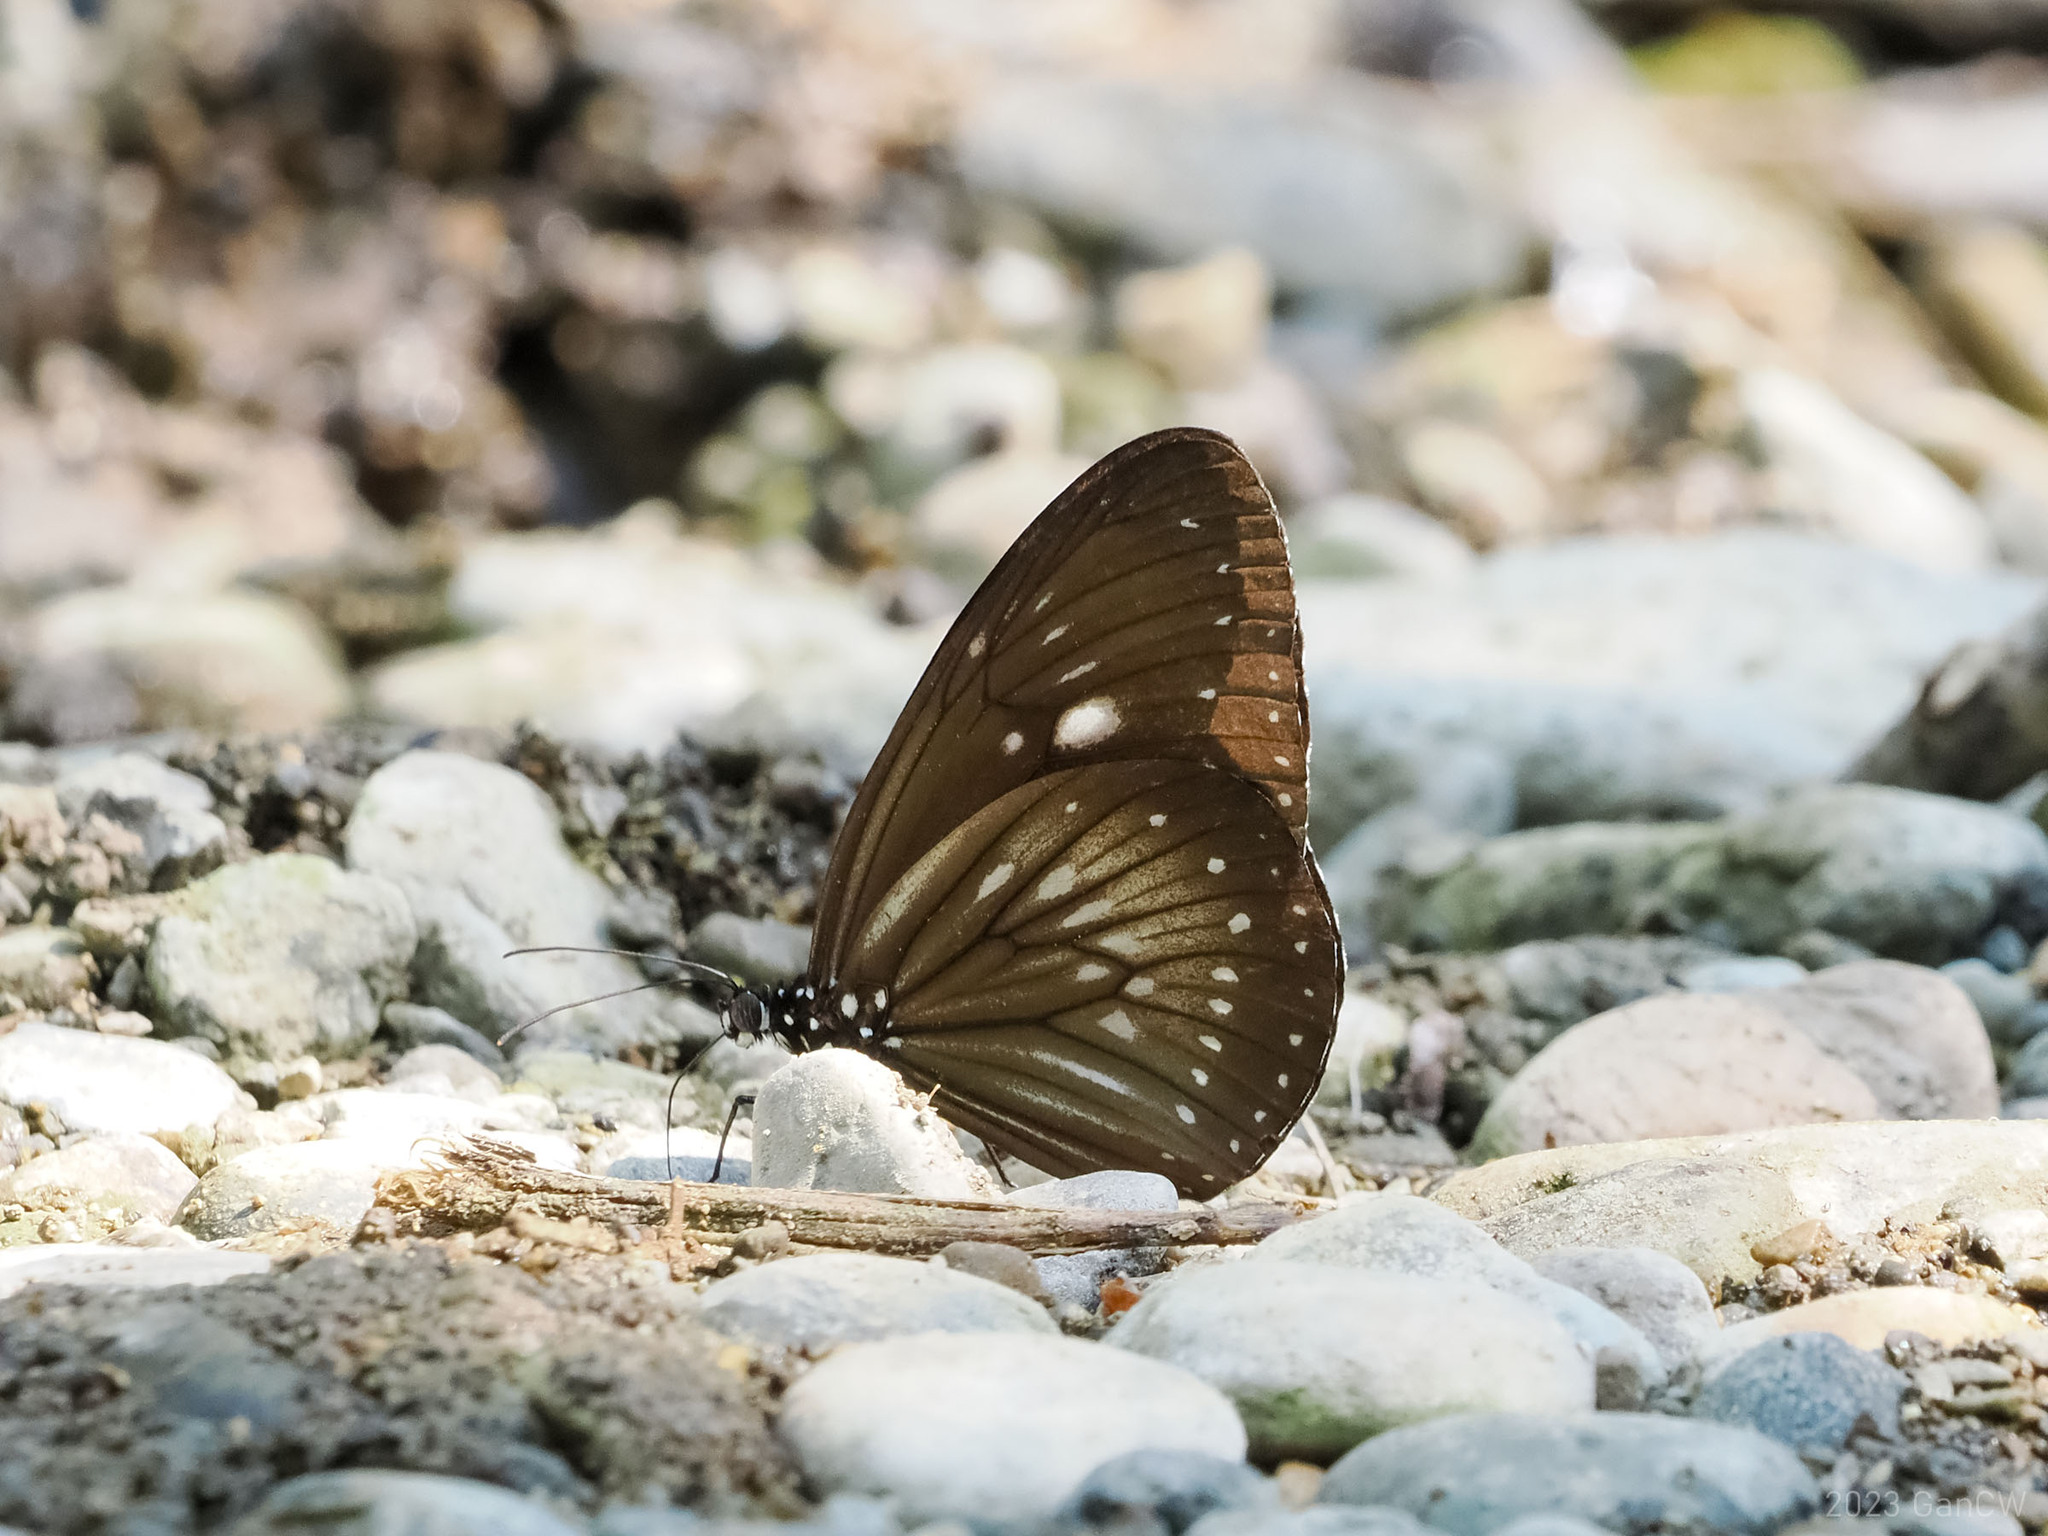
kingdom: Animalia
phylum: Arthropoda
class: Insecta
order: Lepidoptera
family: Nymphalidae
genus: Euploea
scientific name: Euploea algea
